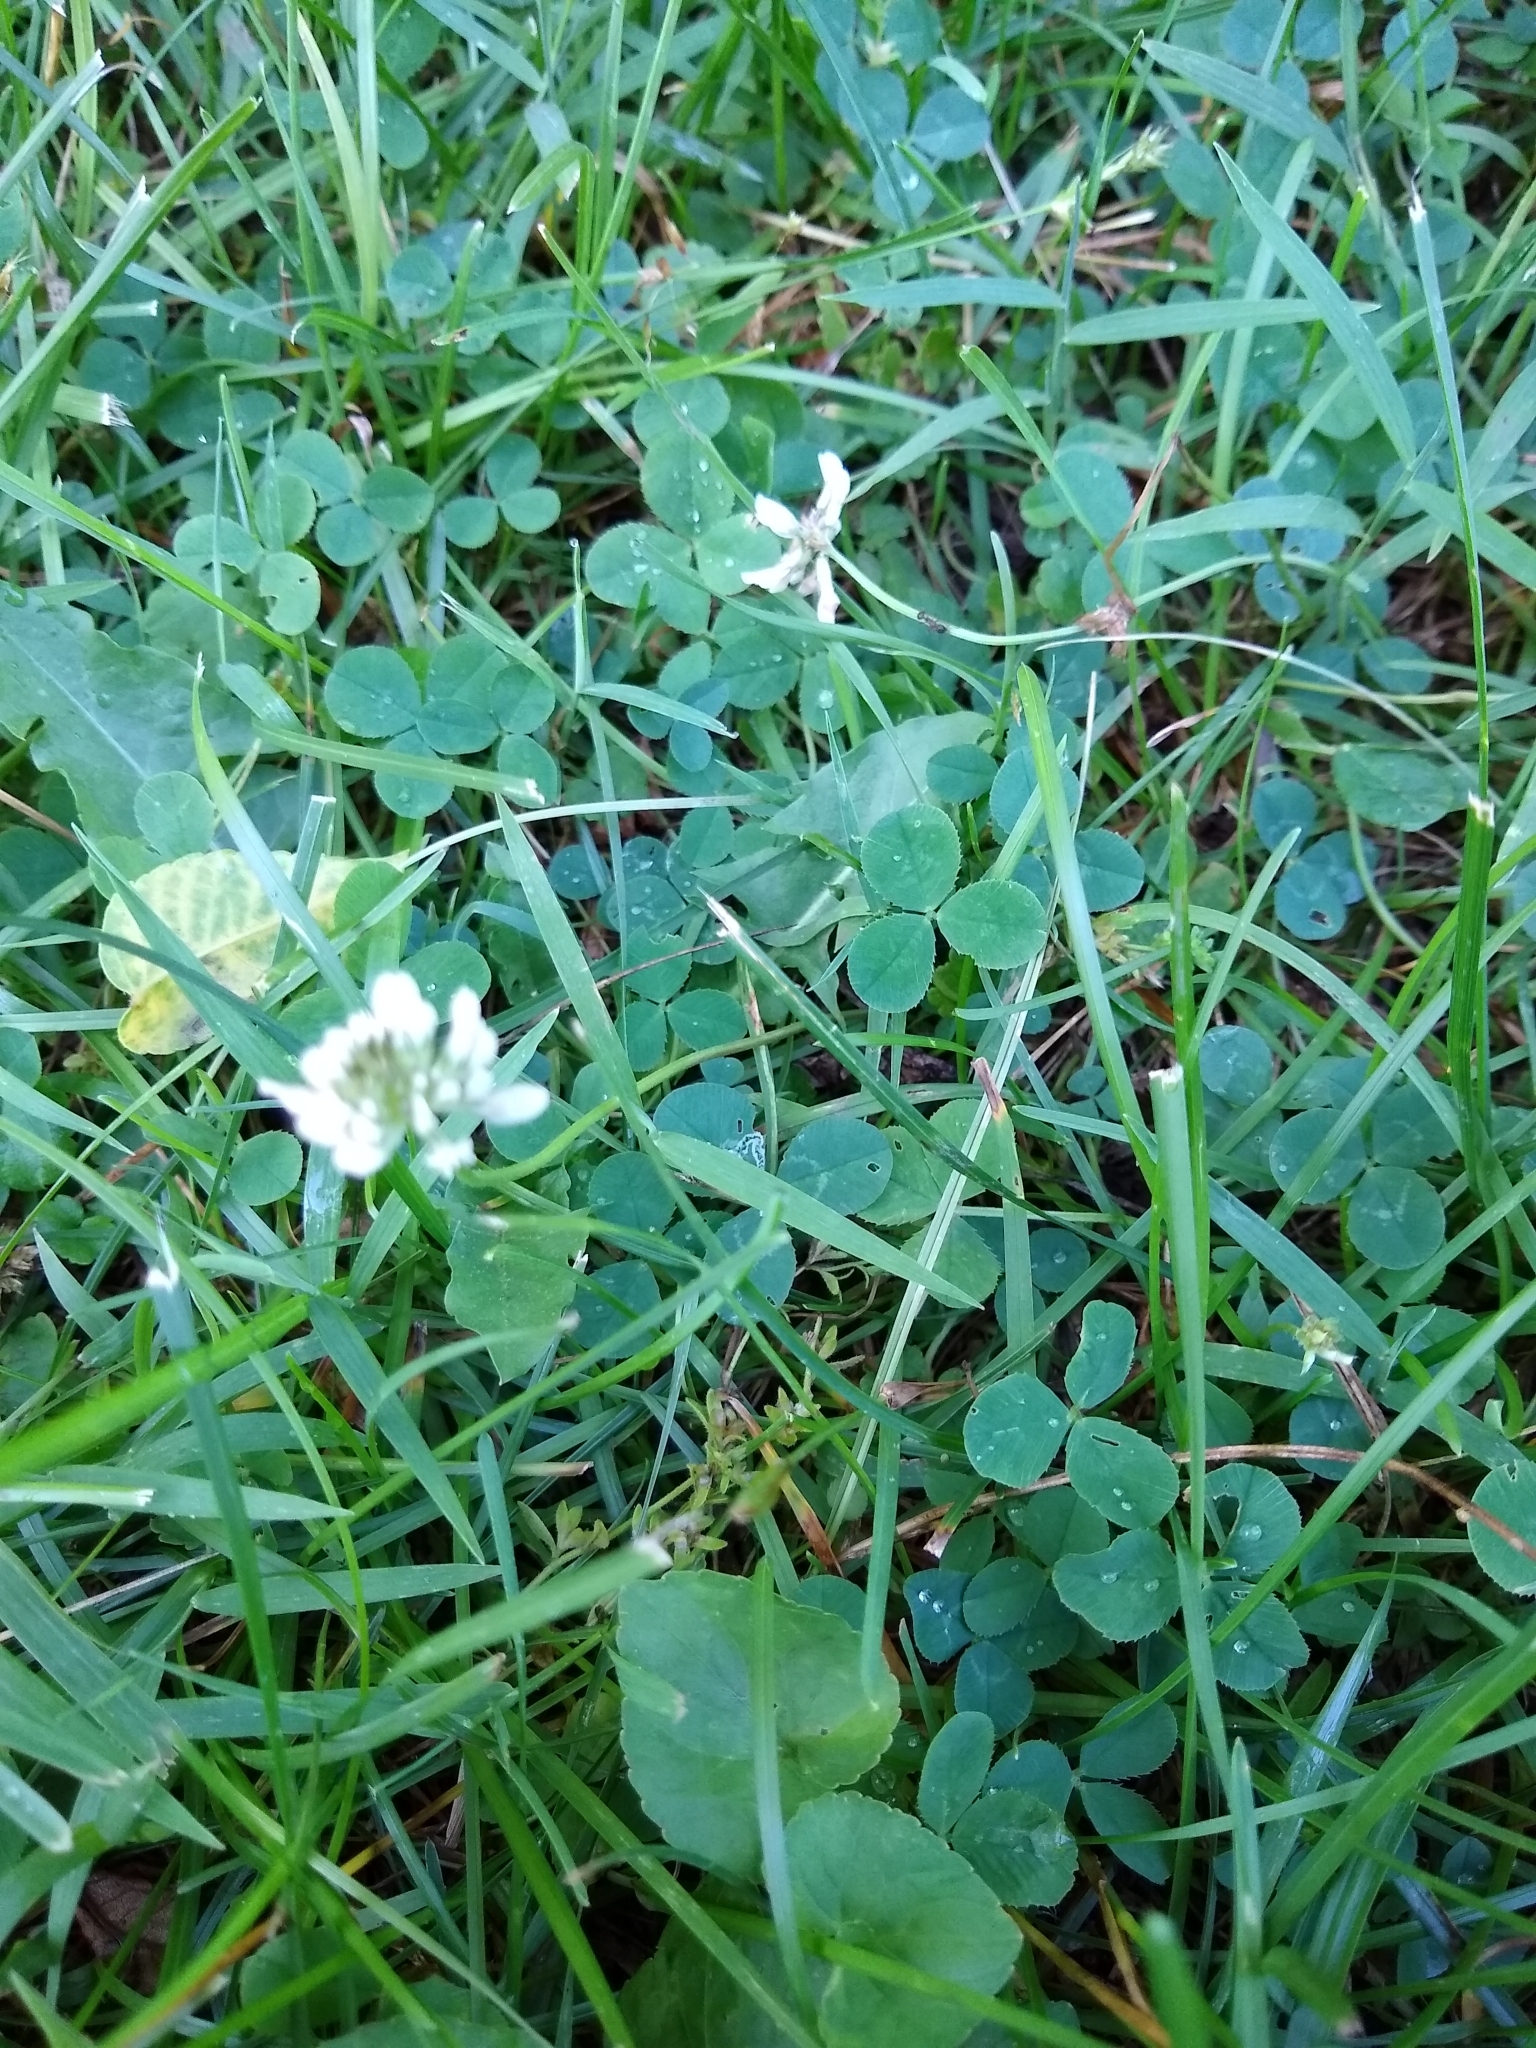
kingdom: Plantae
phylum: Tracheophyta
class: Magnoliopsida
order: Fabales
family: Fabaceae
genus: Trifolium
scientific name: Trifolium repens
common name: White clover
